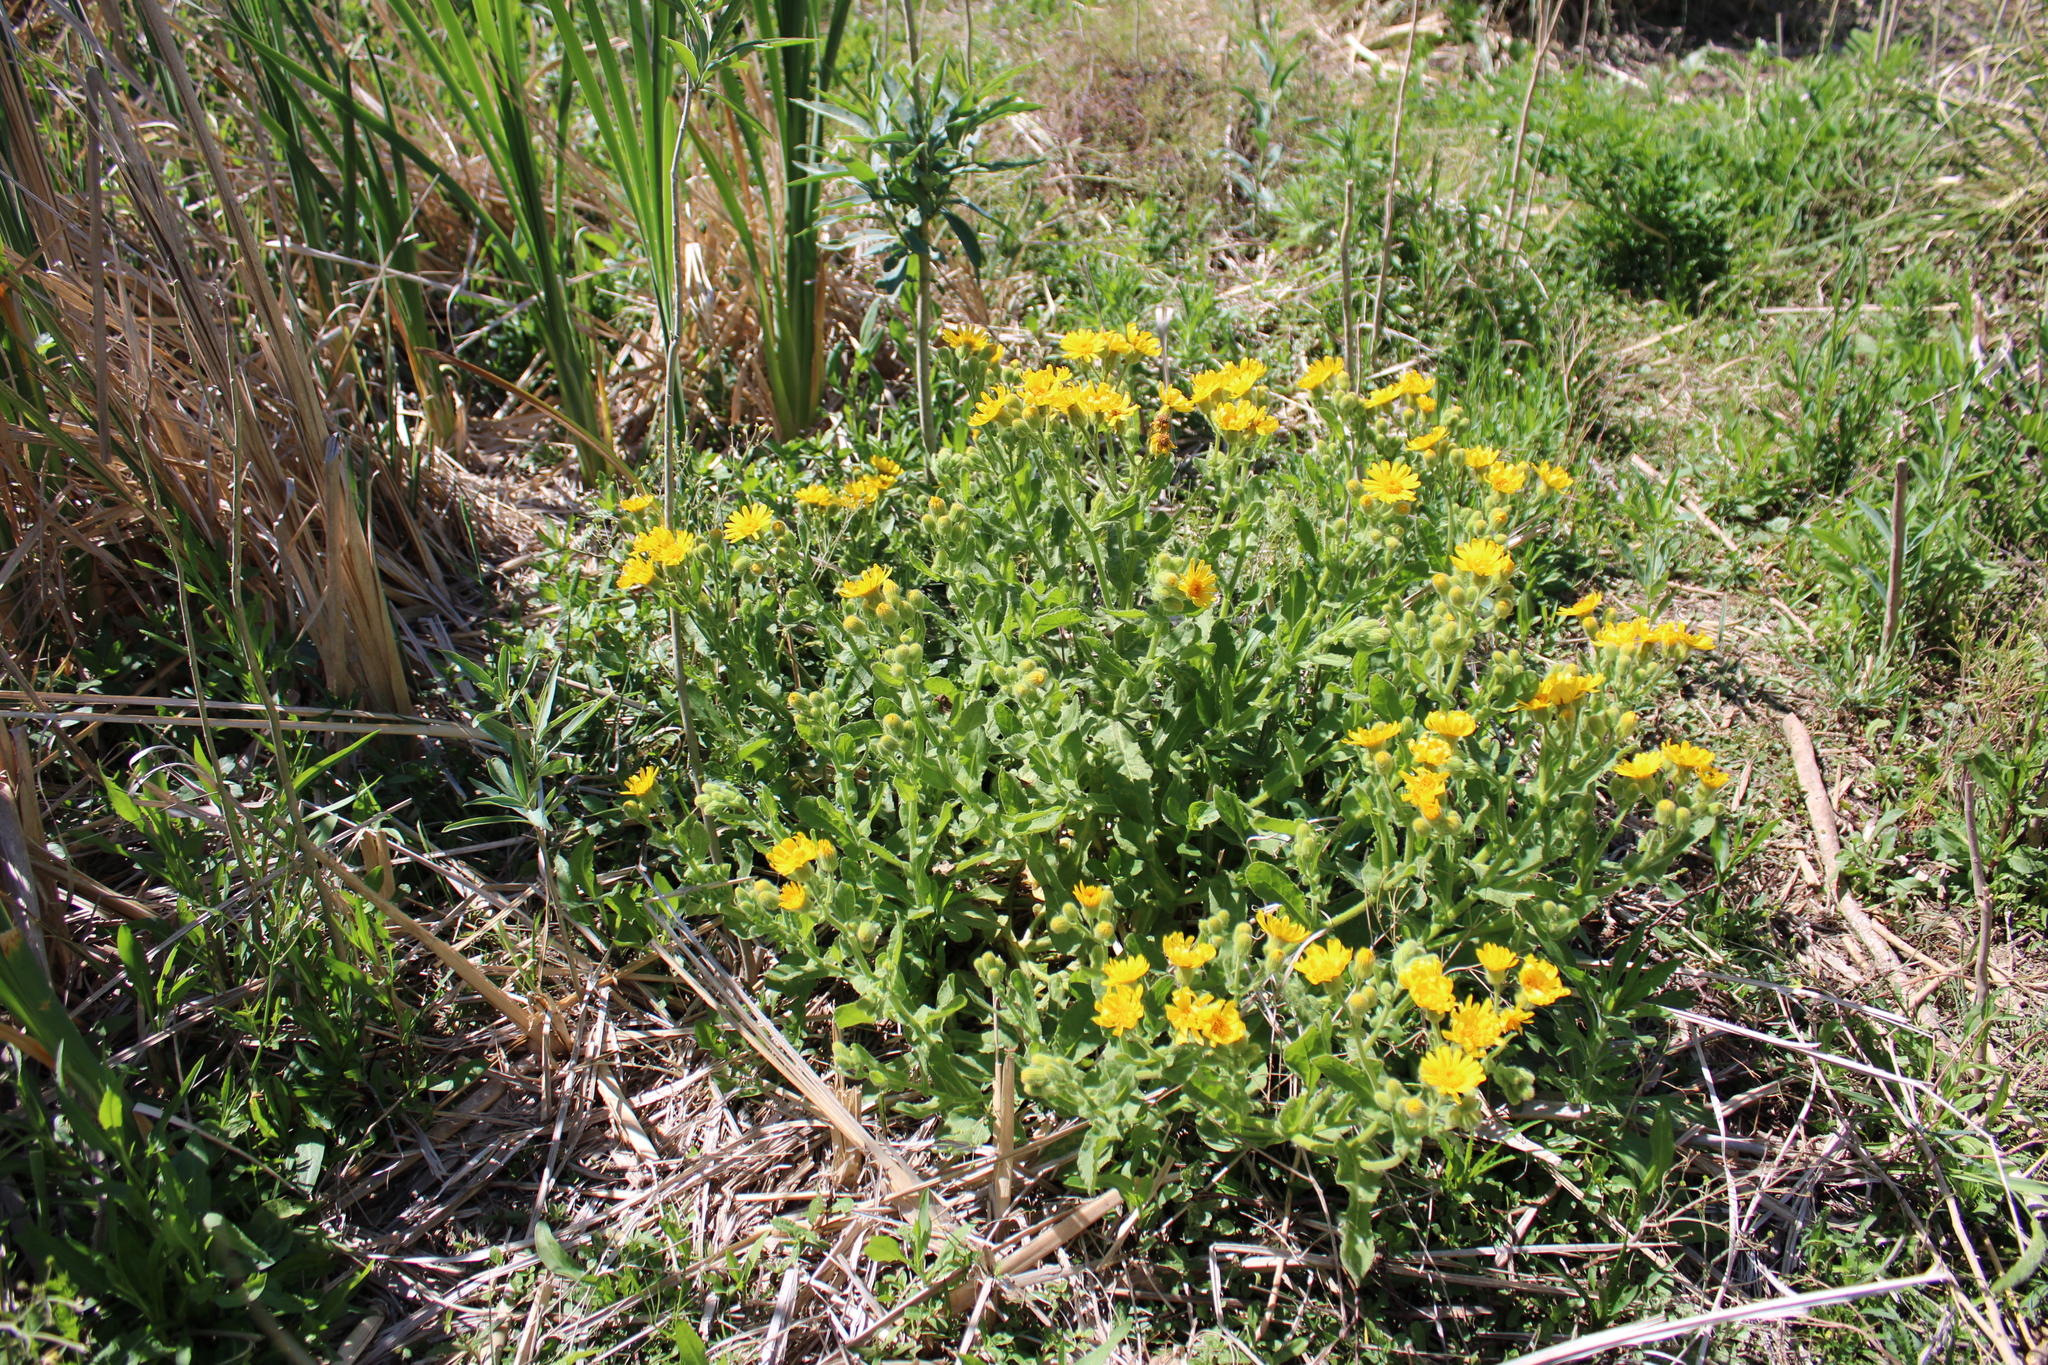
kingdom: Plantae
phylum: Tracheophyta
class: Magnoliopsida
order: Asterales
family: Asteraceae
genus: Senecio
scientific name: Senecio selloi
